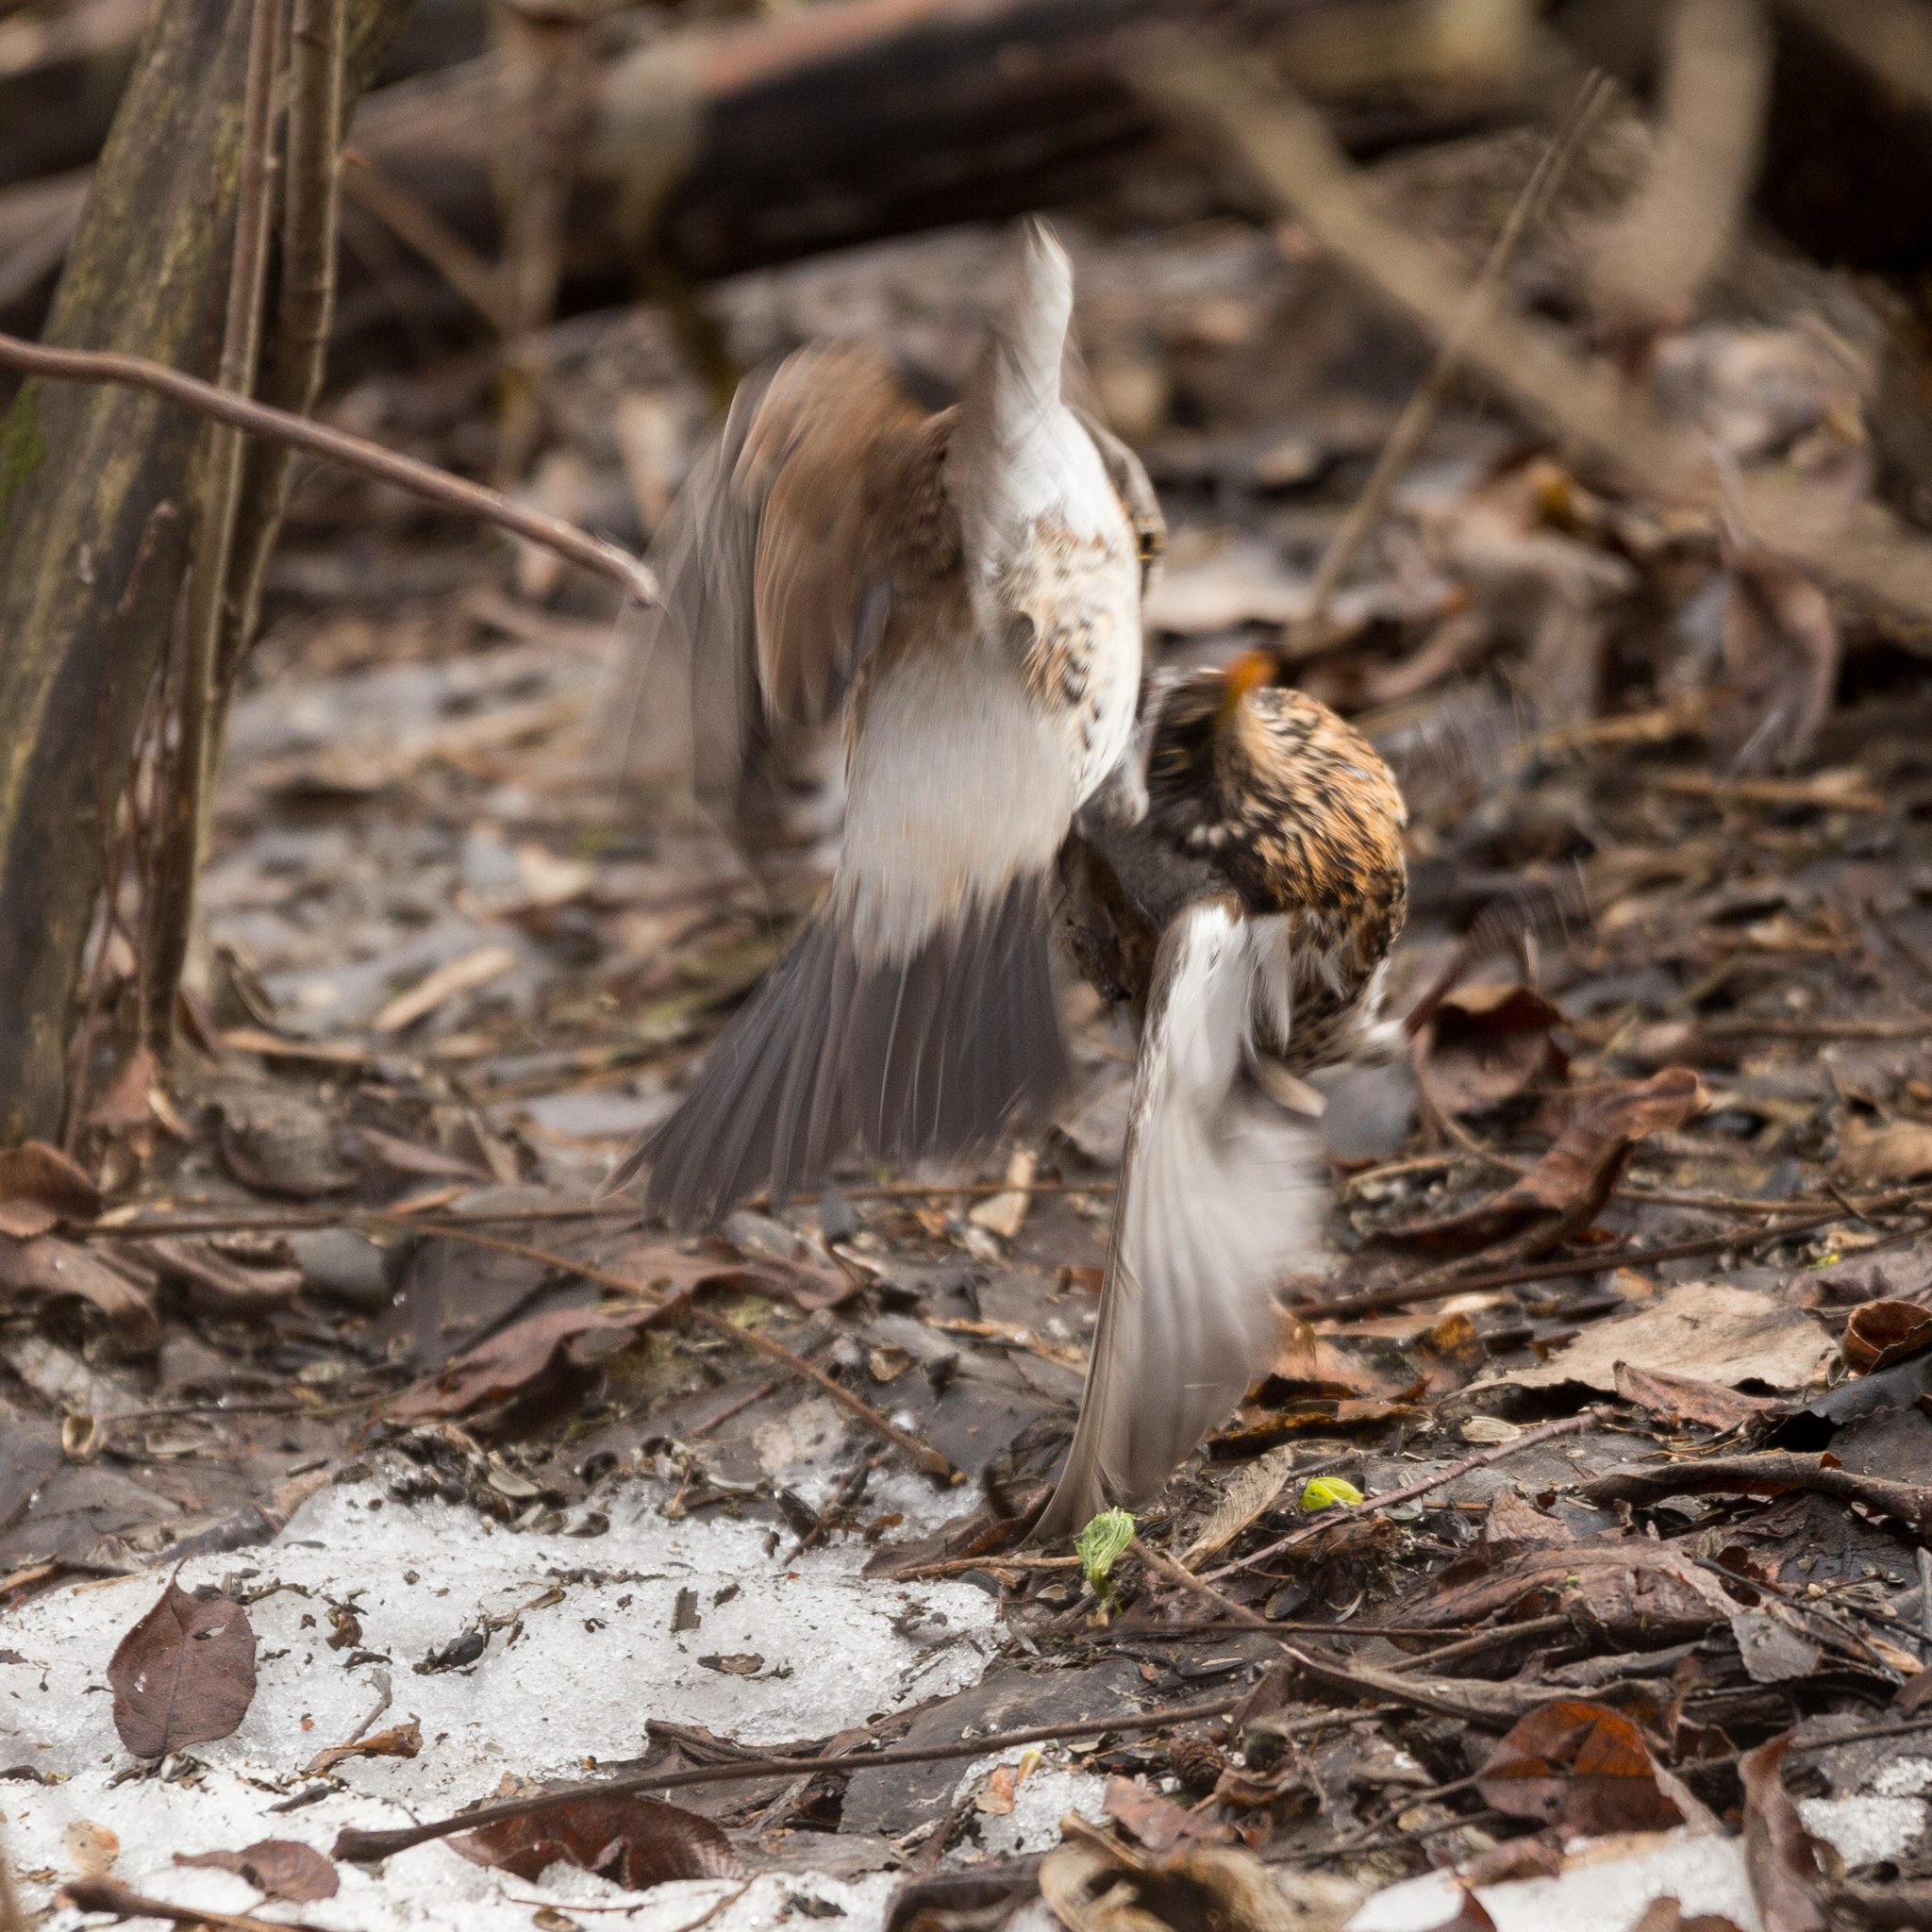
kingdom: Animalia
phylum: Chordata
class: Aves
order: Passeriformes
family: Turdidae
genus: Turdus
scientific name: Turdus pilaris
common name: Fieldfare
